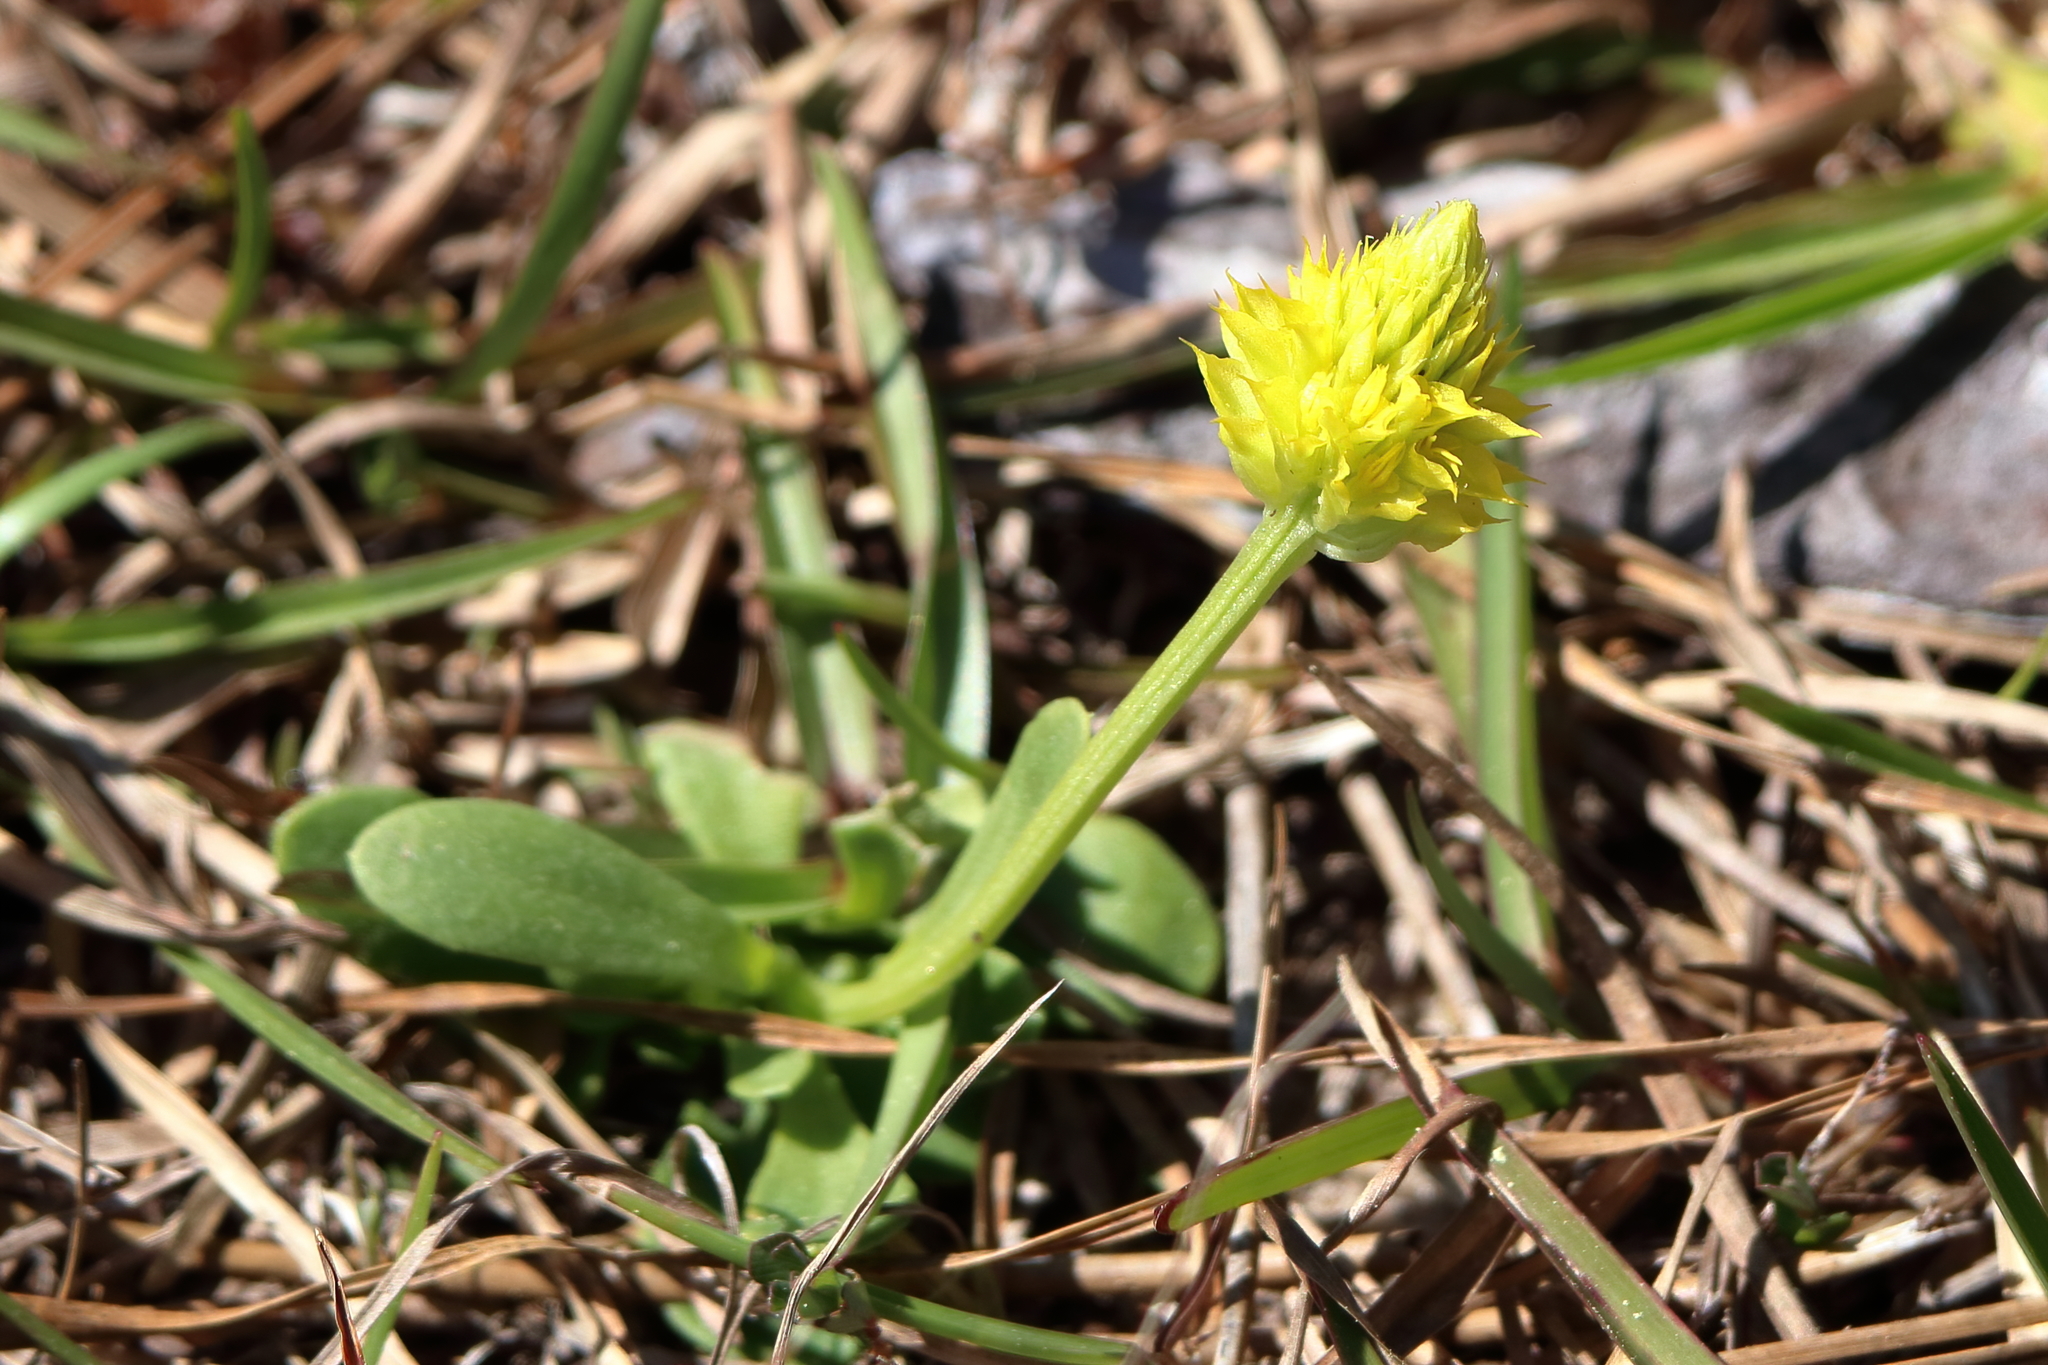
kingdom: Plantae
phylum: Tracheophyta
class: Magnoliopsida
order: Fabales
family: Polygalaceae
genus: Polygala
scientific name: Polygala nana
